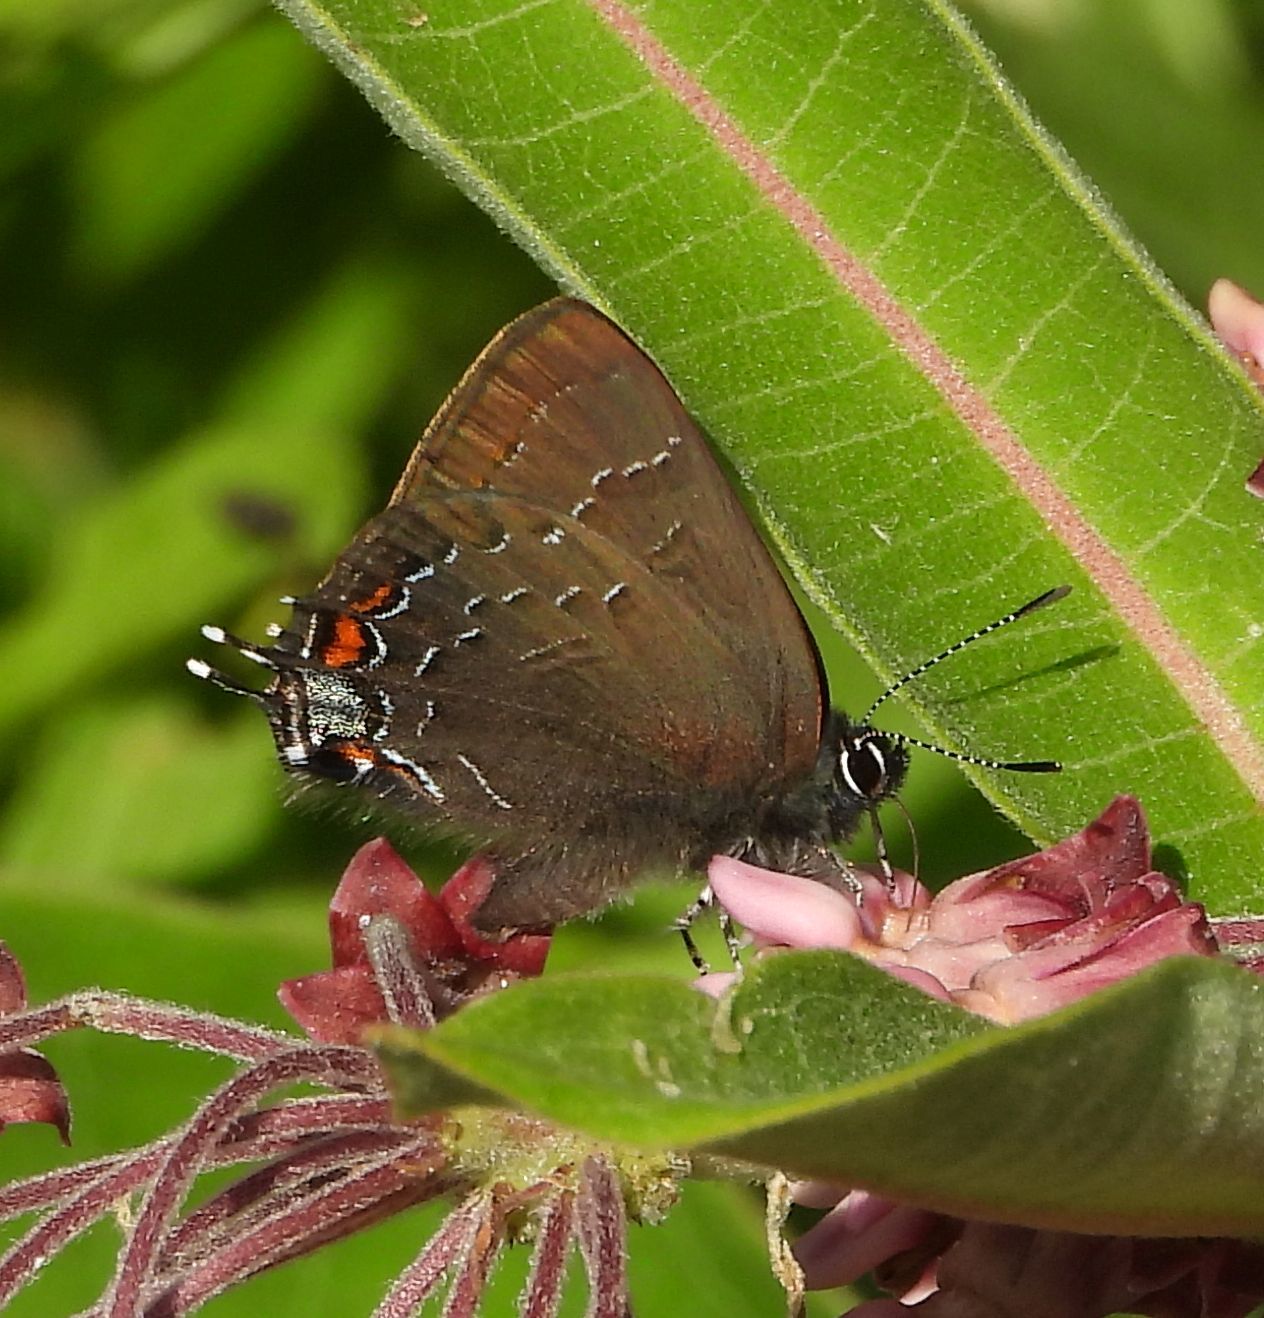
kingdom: Animalia
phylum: Arthropoda
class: Insecta
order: Lepidoptera
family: Lycaenidae
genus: Satyrium
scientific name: Satyrium calanus
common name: Banded hairstreak
